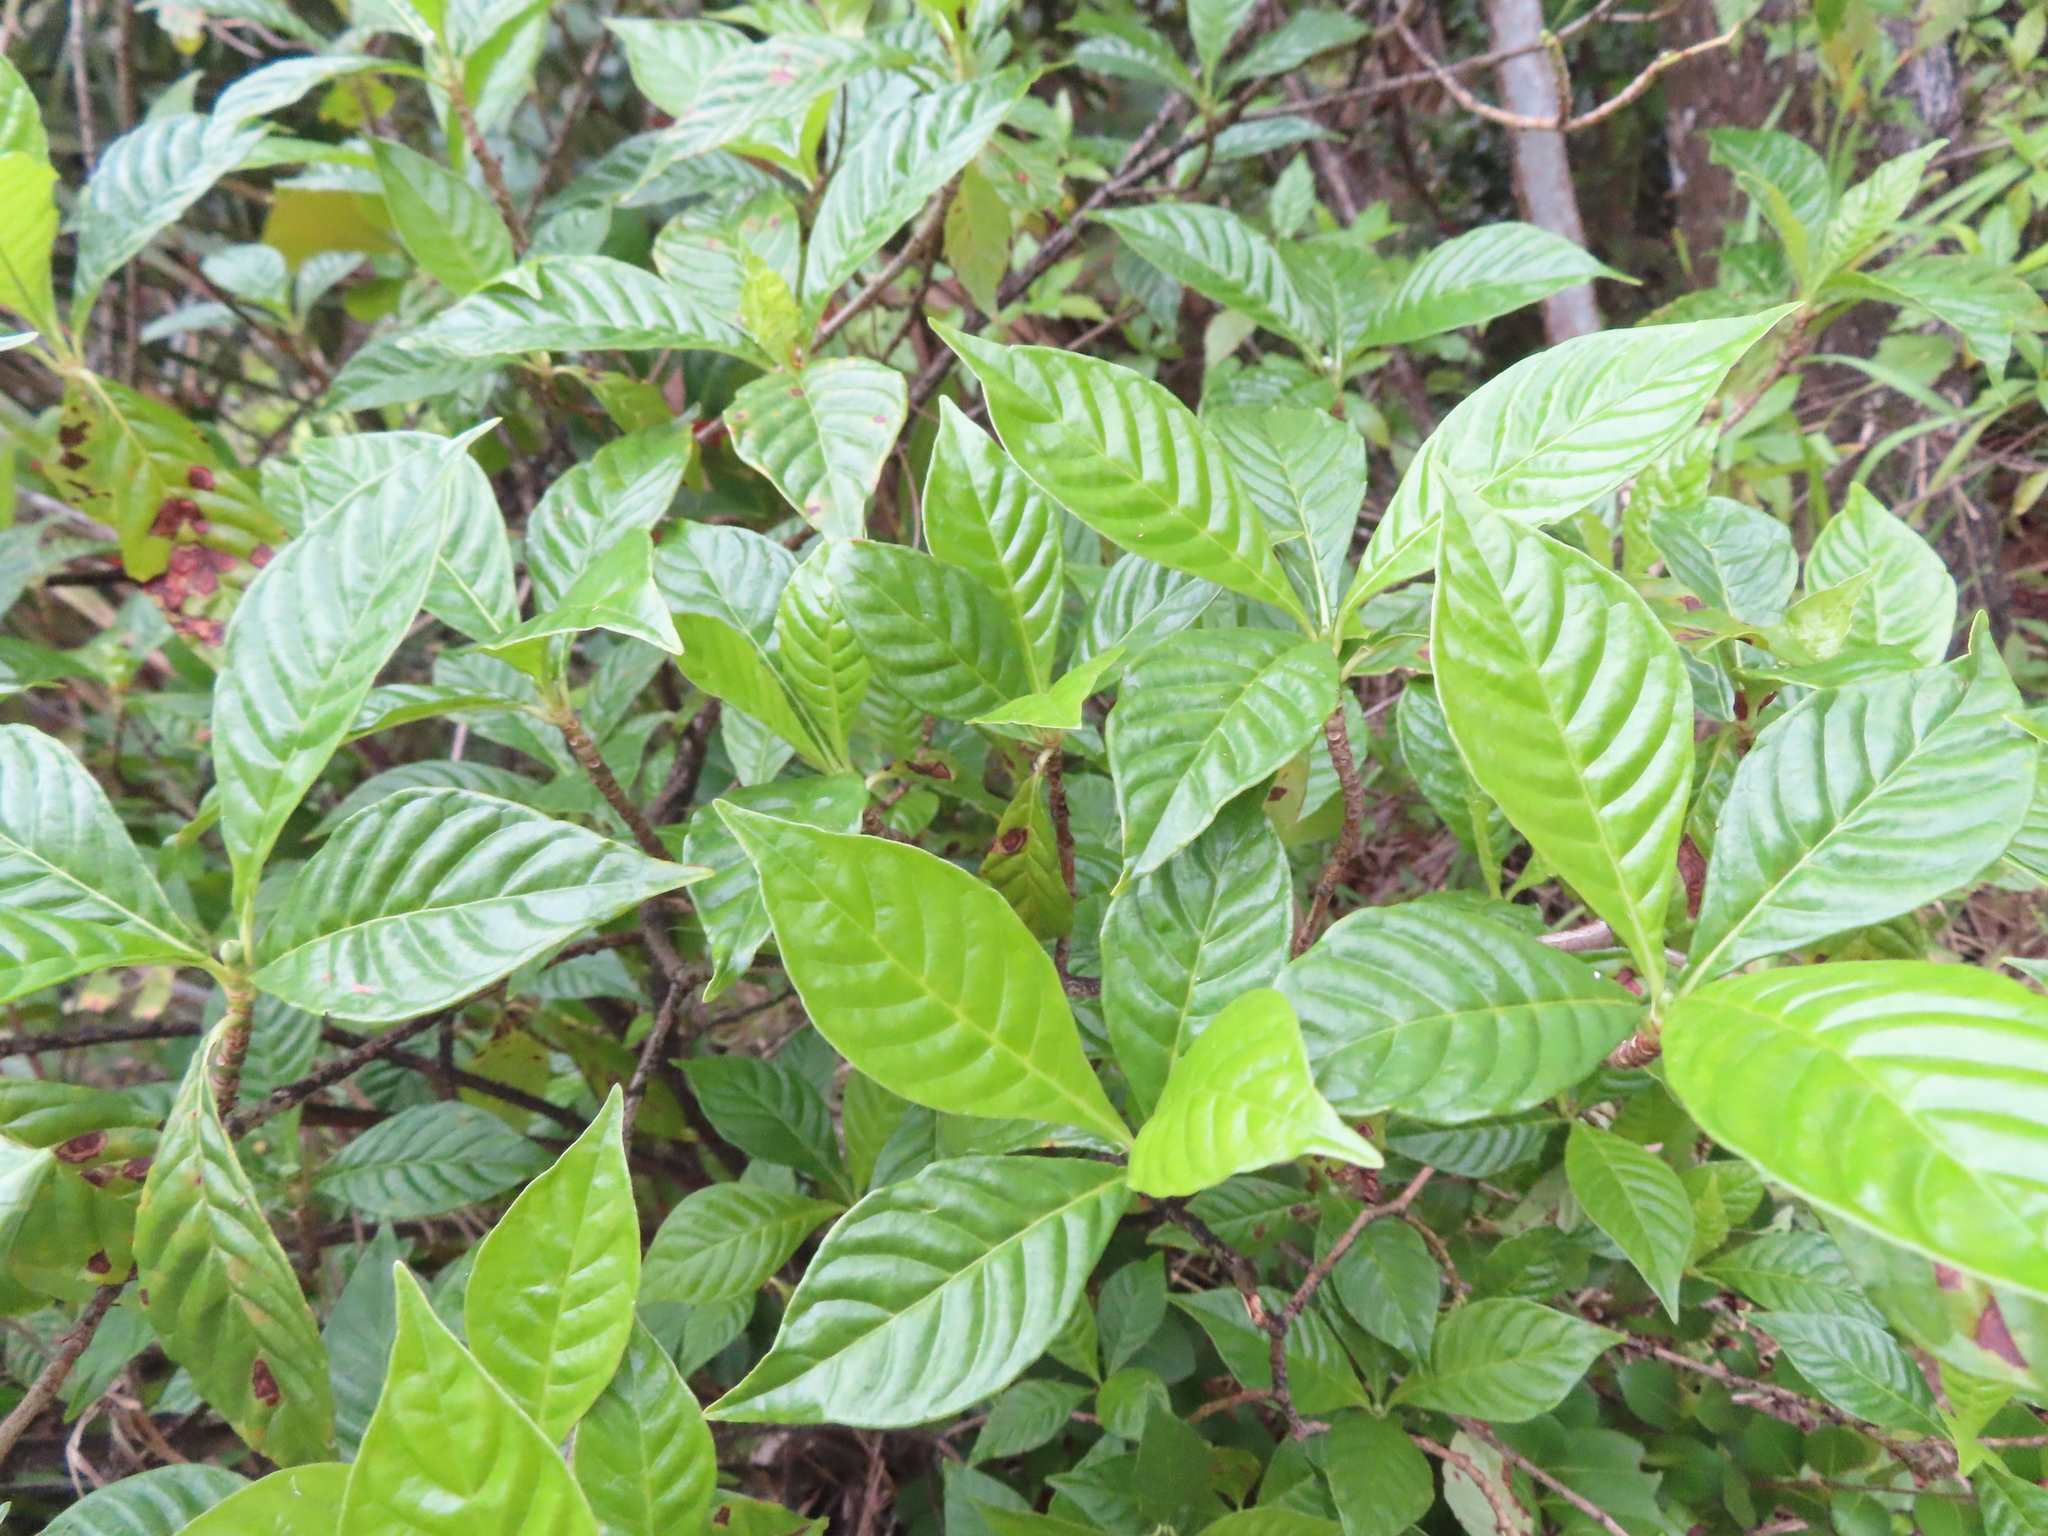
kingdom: Plantae
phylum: Tracheophyta
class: Magnoliopsida
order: Gentianales
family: Rubiaceae
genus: Psychotria
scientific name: Psychotria nervosa
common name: Bastard cankerberry
